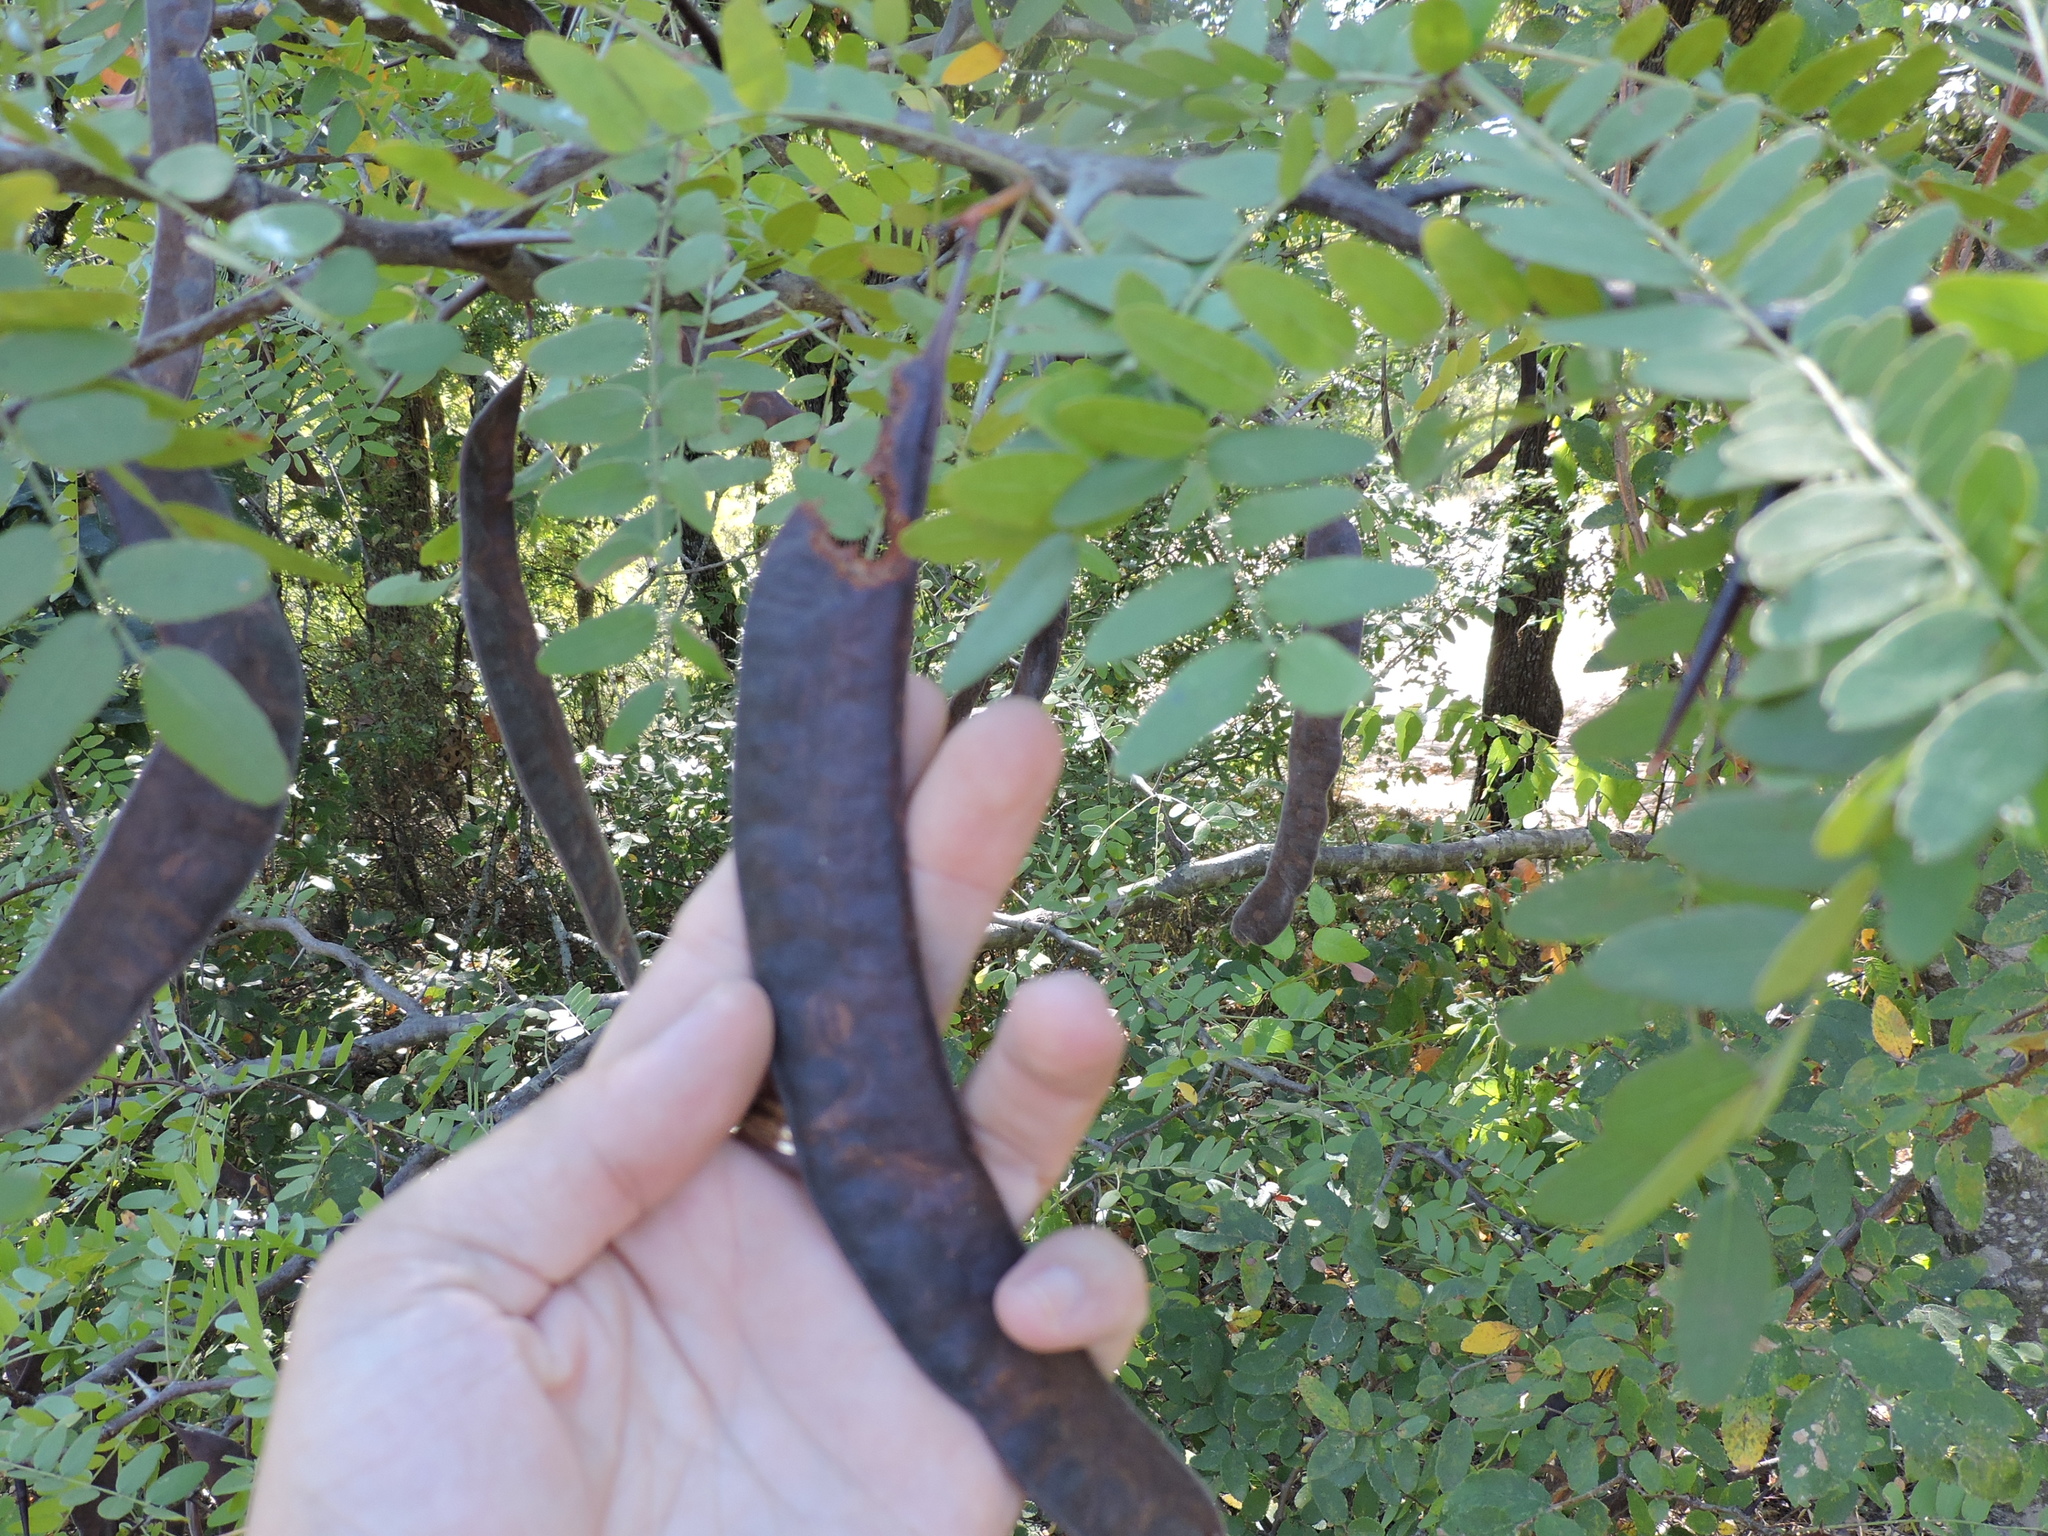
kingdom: Plantae
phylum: Tracheophyta
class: Magnoliopsida
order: Fabales
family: Fabaceae
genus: Gleditsia
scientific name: Gleditsia triacanthos
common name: Common honeylocust
